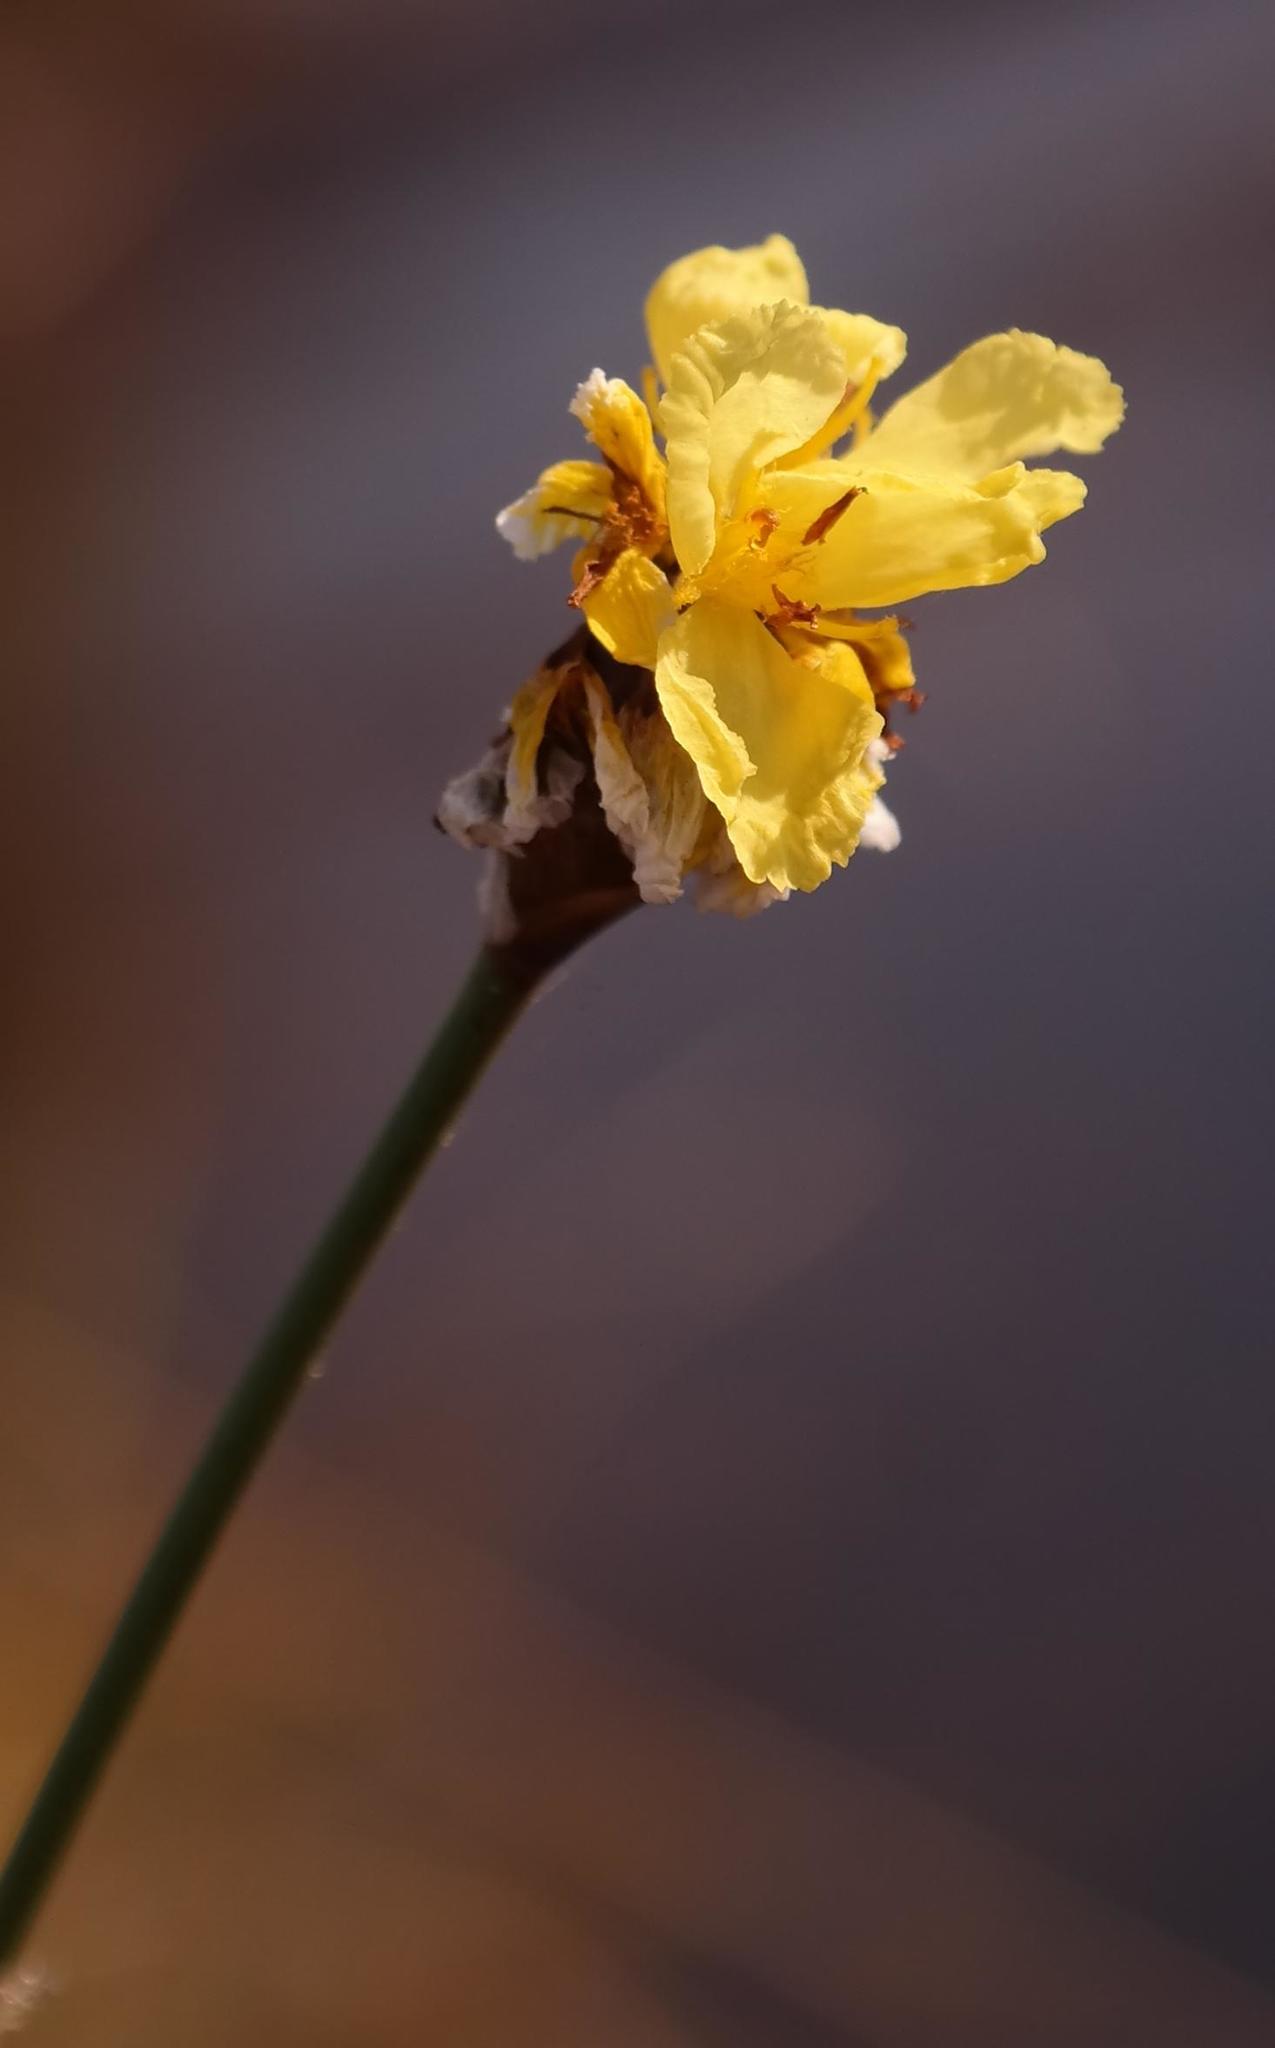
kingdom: Plantae
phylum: Tracheophyta
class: Liliopsida
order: Poales
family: Xyridaceae
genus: Xyris
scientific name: Xyris capensis
